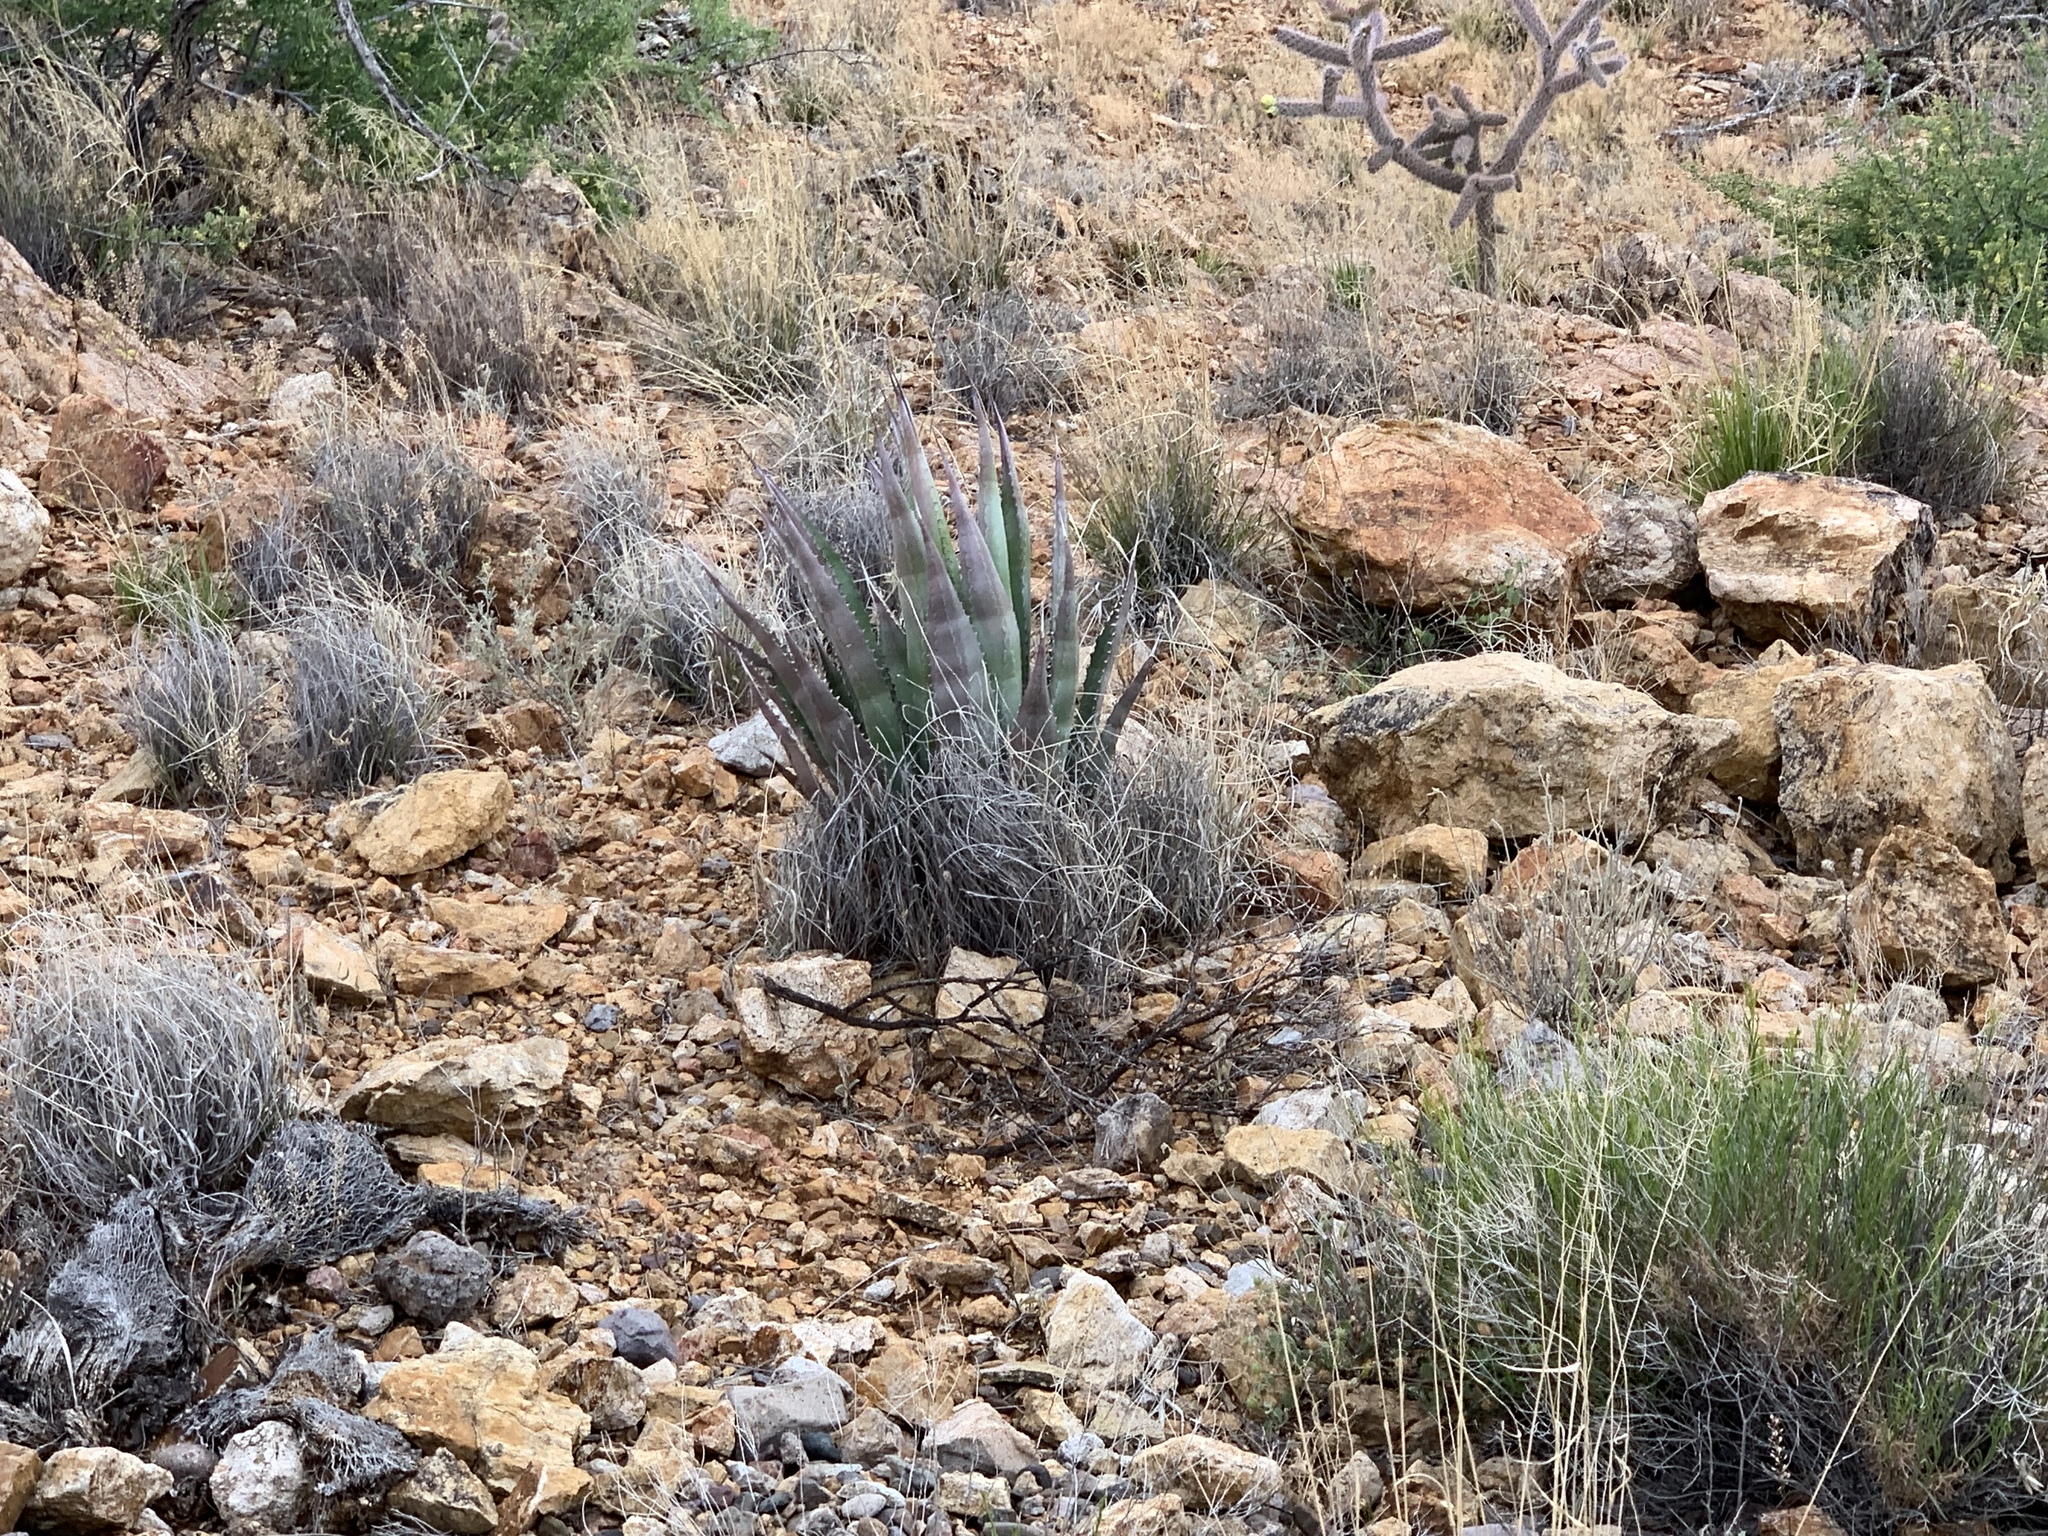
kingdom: Plantae
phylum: Tracheophyta
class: Liliopsida
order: Asparagales
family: Asparagaceae
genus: Agave
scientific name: Agave palmeri
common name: Palmer agave
